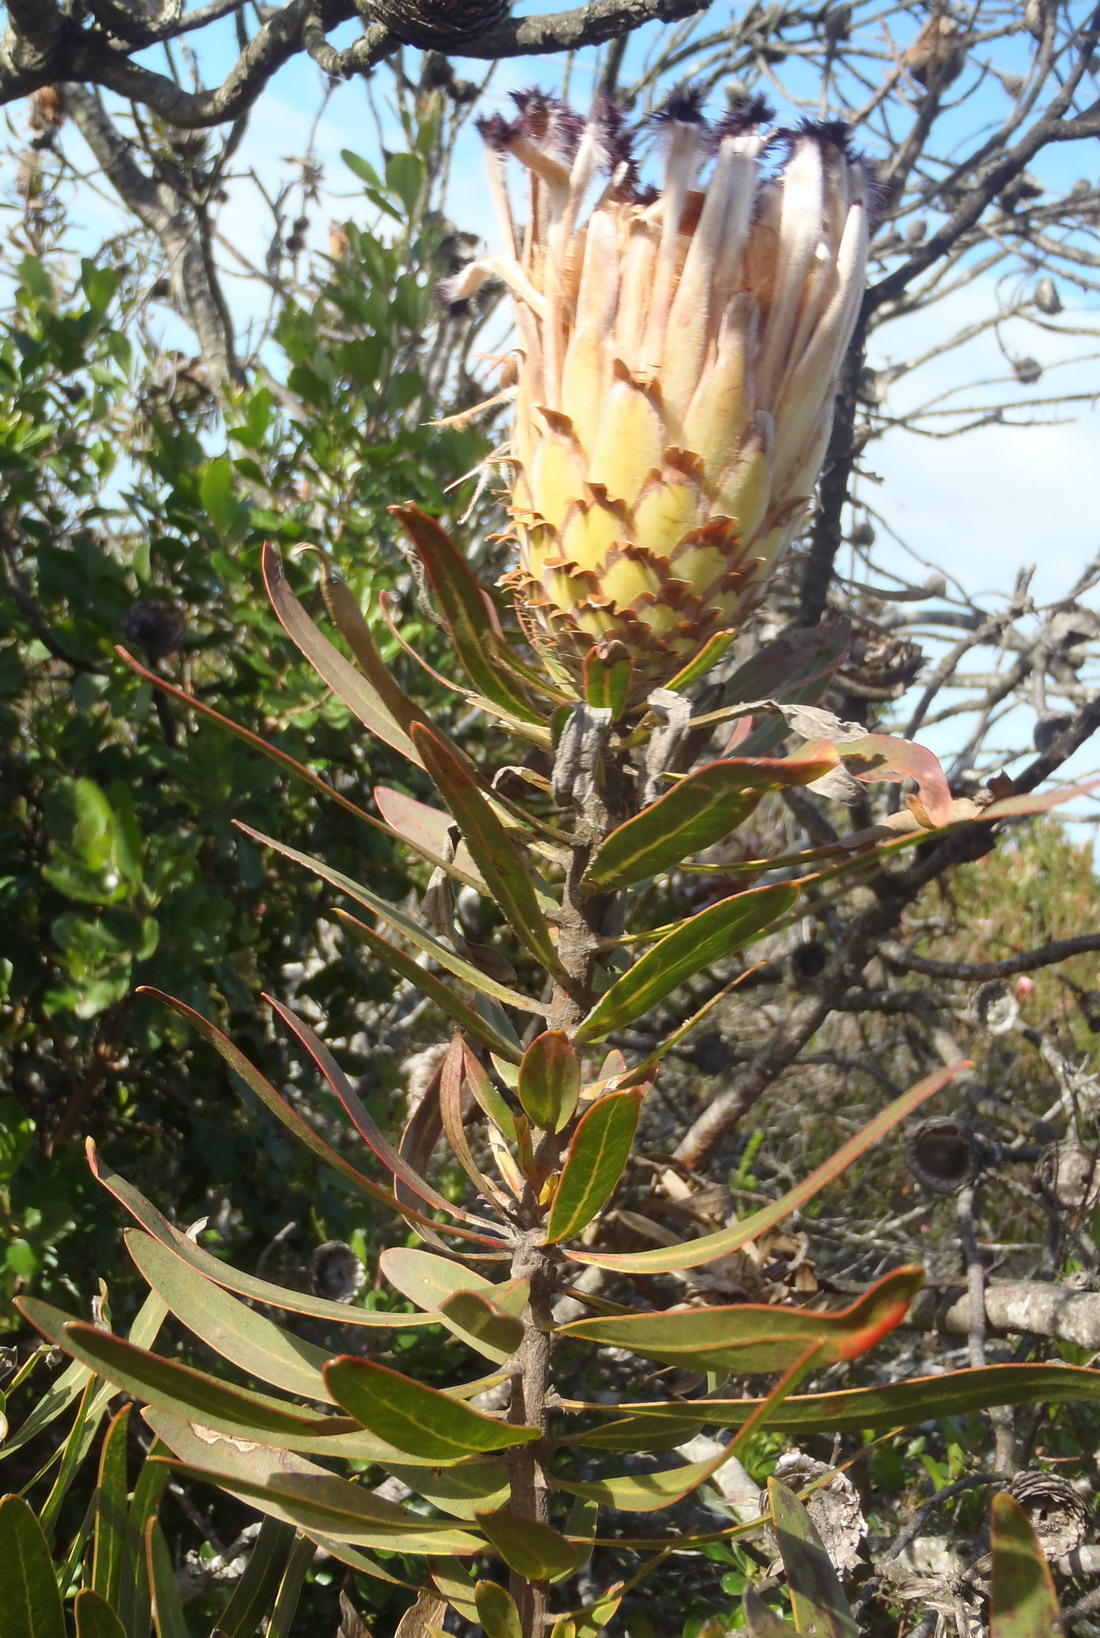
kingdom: Plantae
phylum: Tracheophyta
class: Magnoliopsida
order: Proteales
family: Proteaceae
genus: Protea
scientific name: Protea neriifolia
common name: Blue sugarbush
